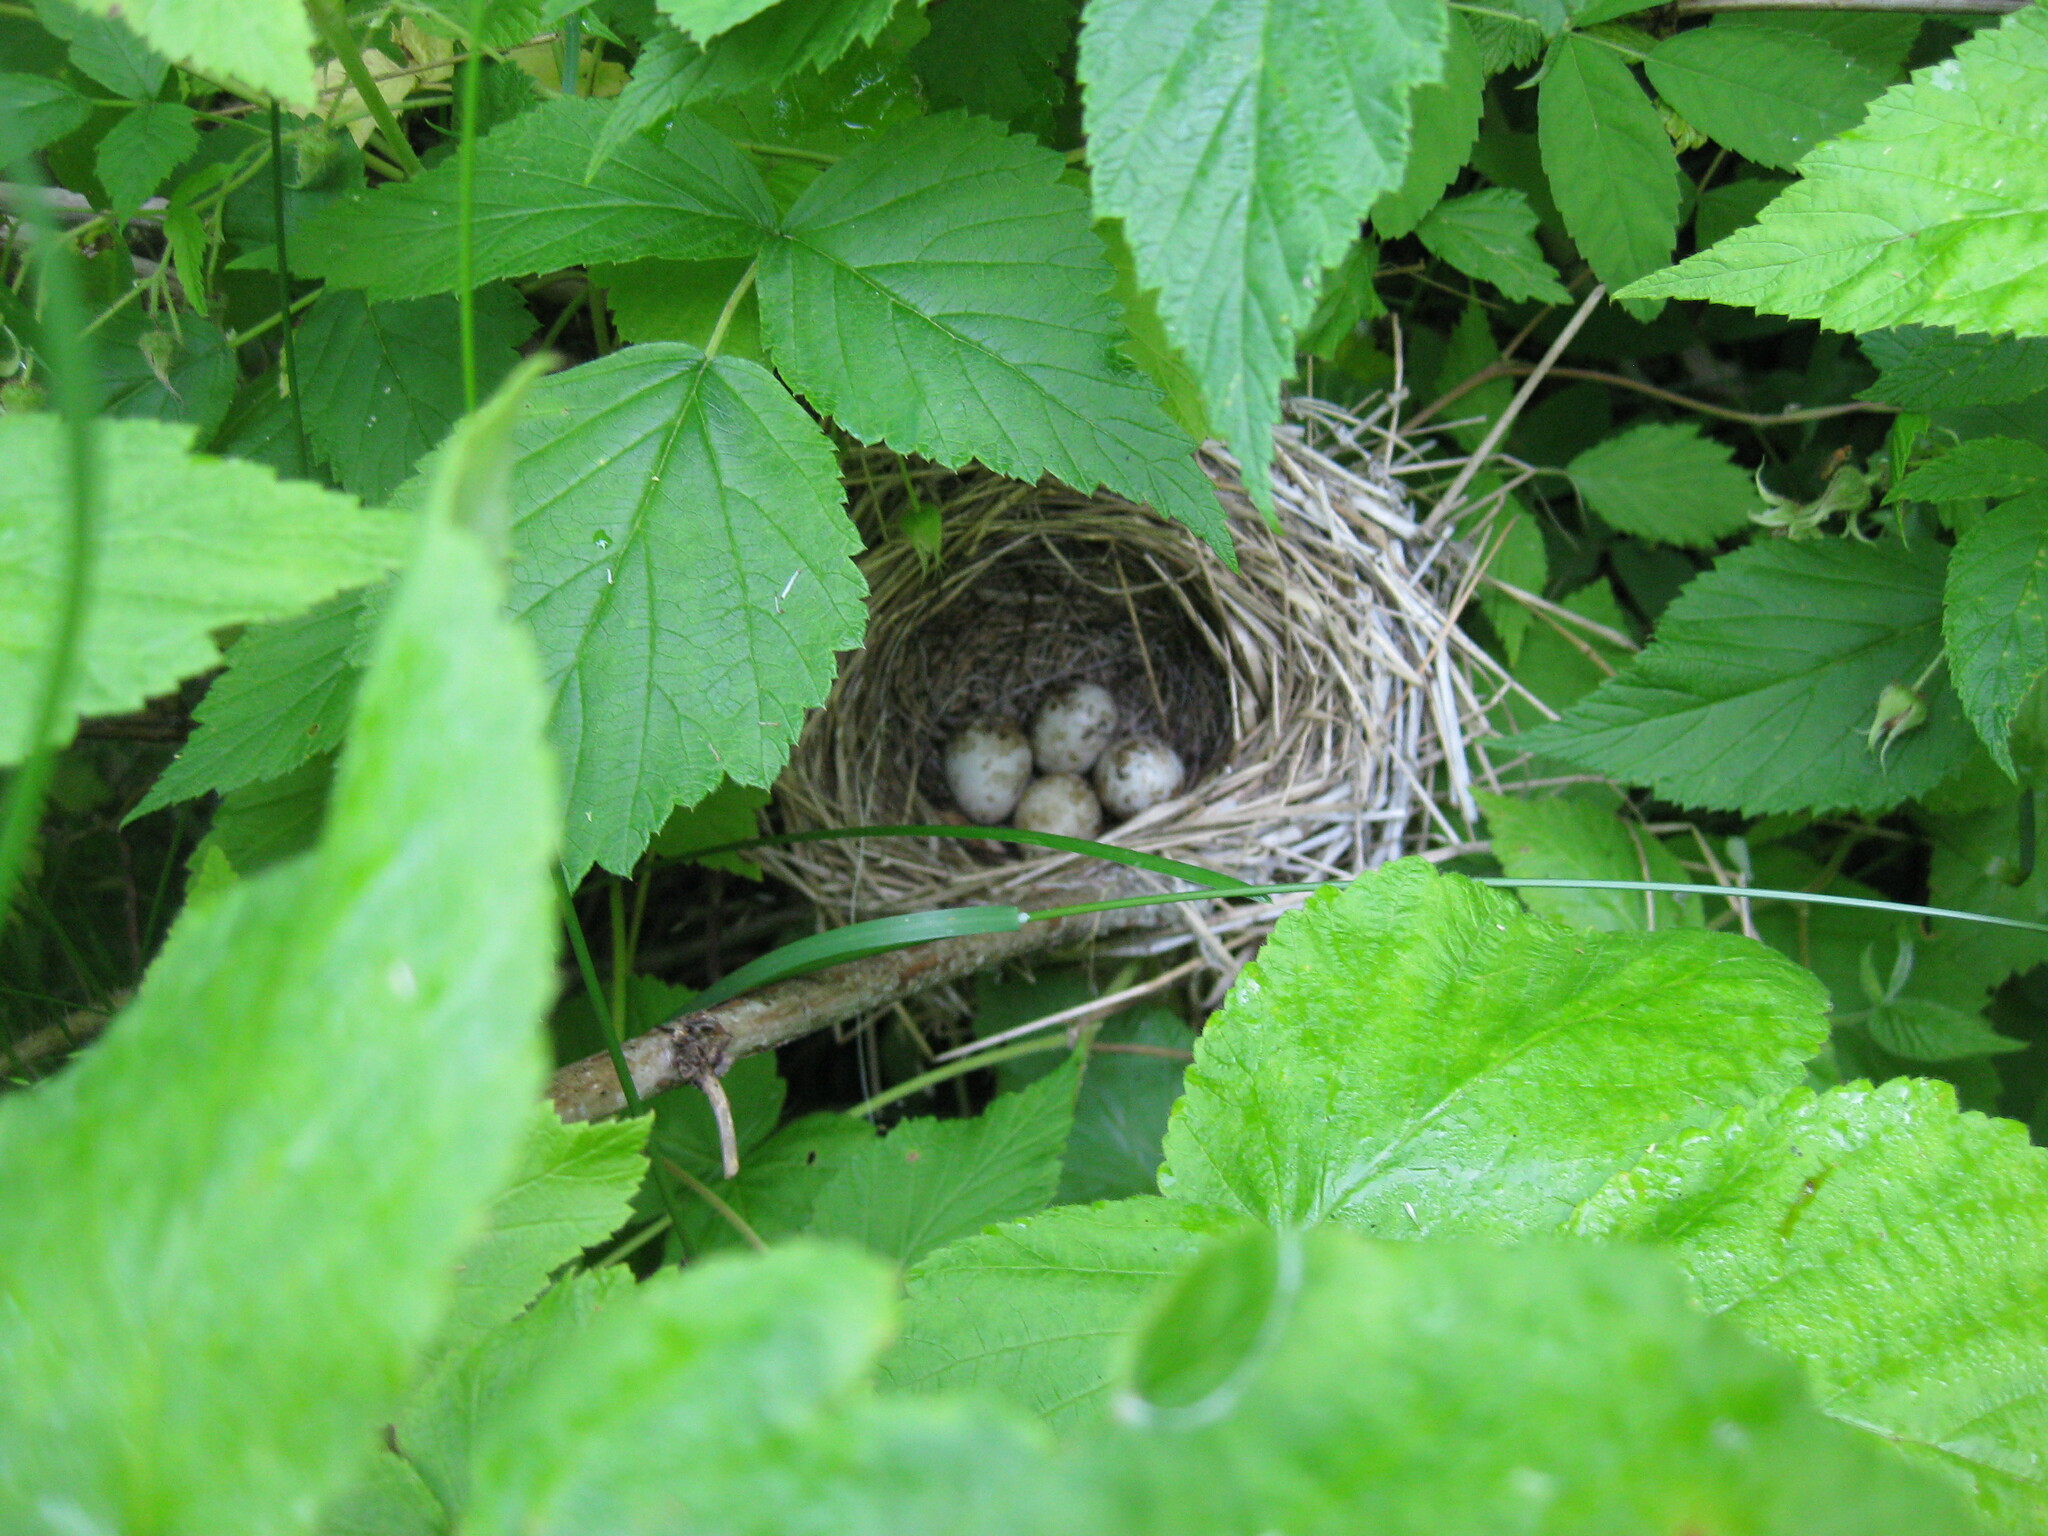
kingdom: Animalia
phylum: Chordata
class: Aves
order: Passeriformes
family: Acrocephalidae
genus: Acrocephalus
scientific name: Acrocephalus dumetorum
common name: Blyth's reed warbler
